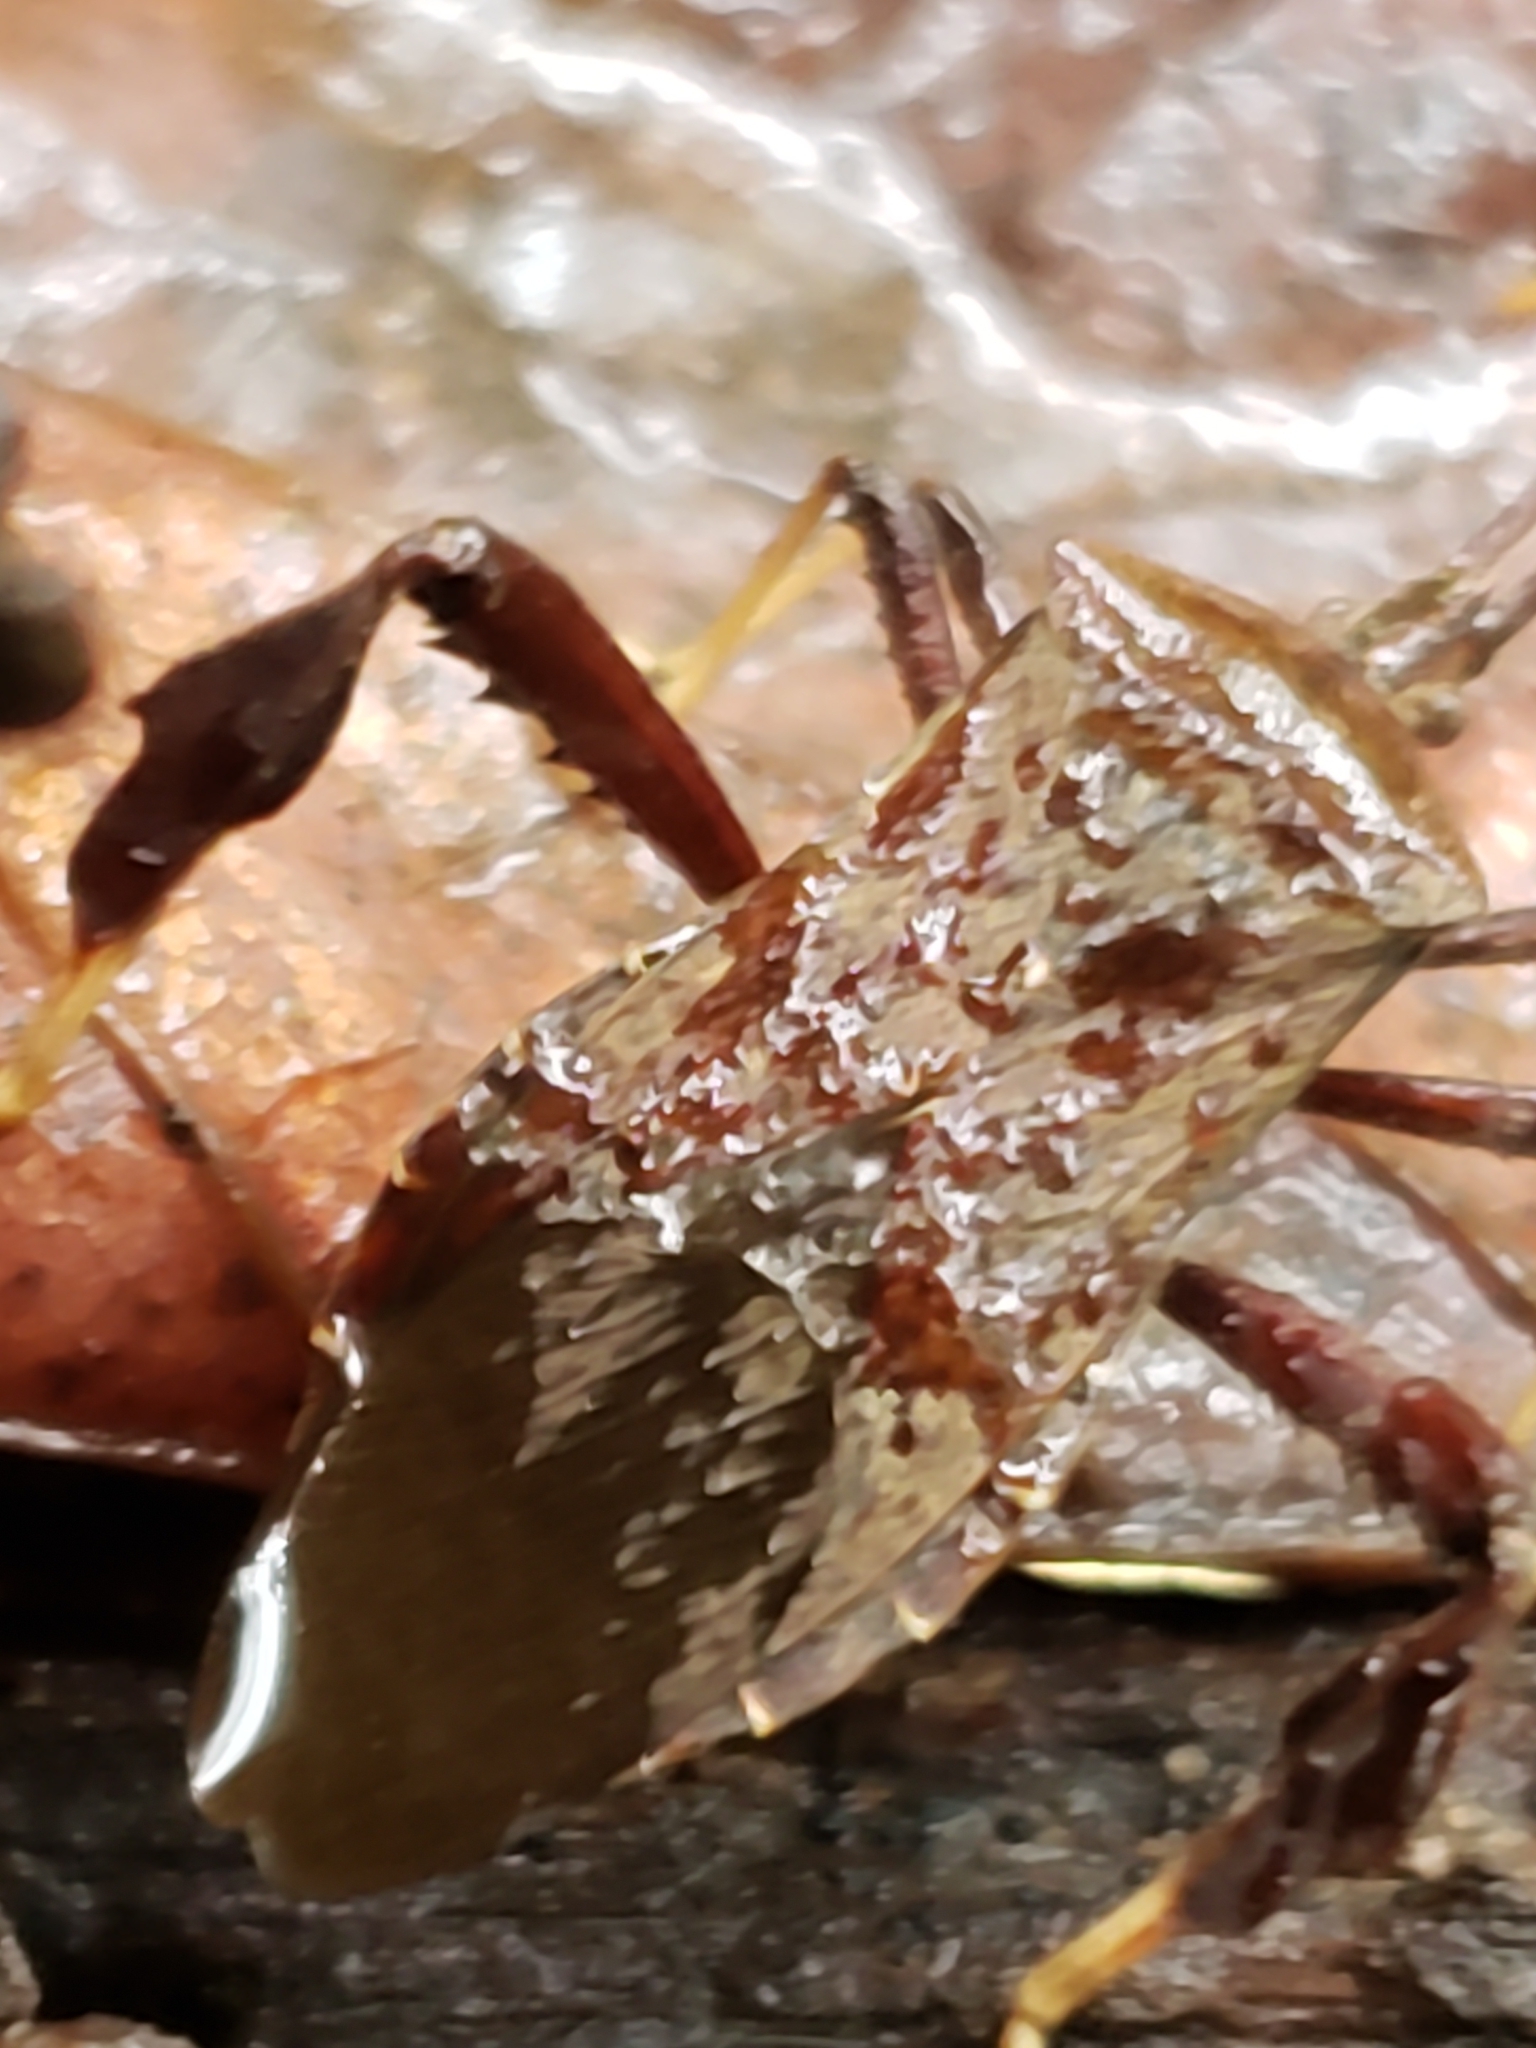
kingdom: Animalia
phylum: Arthropoda
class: Insecta
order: Hemiptera
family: Coreidae
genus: Acanthocephala
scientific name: Acanthocephala terminalis
